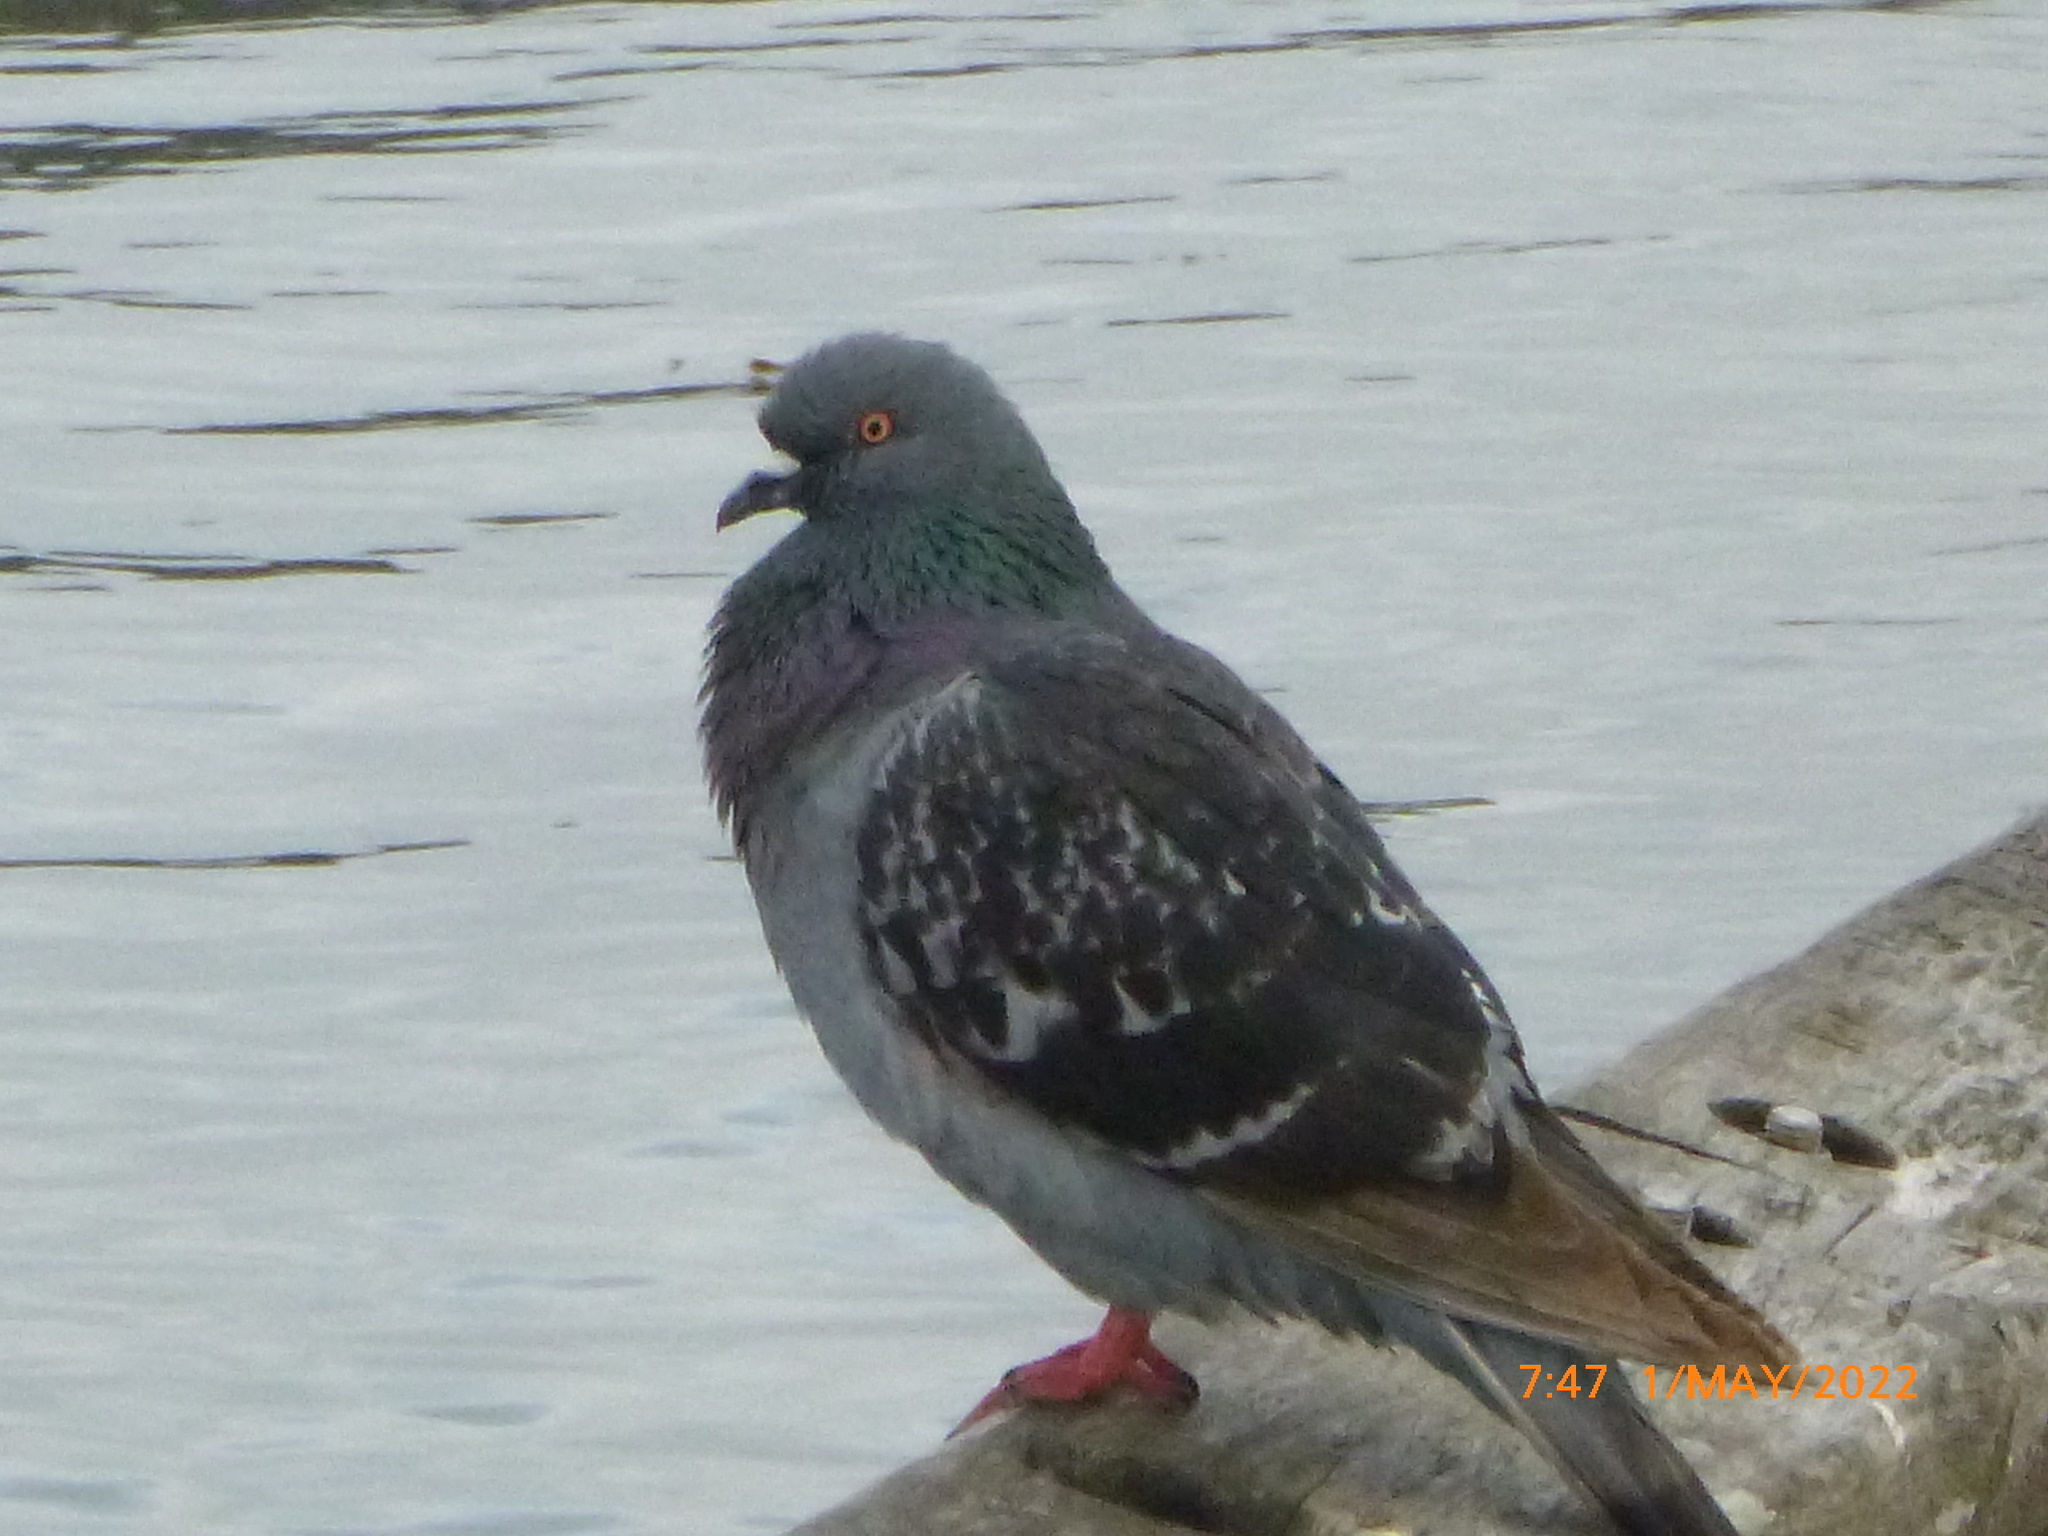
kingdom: Animalia
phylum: Chordata
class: Aves
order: Columbiformes
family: Columbidae
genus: Columba
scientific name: Columba livia
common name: Rock pigeon
